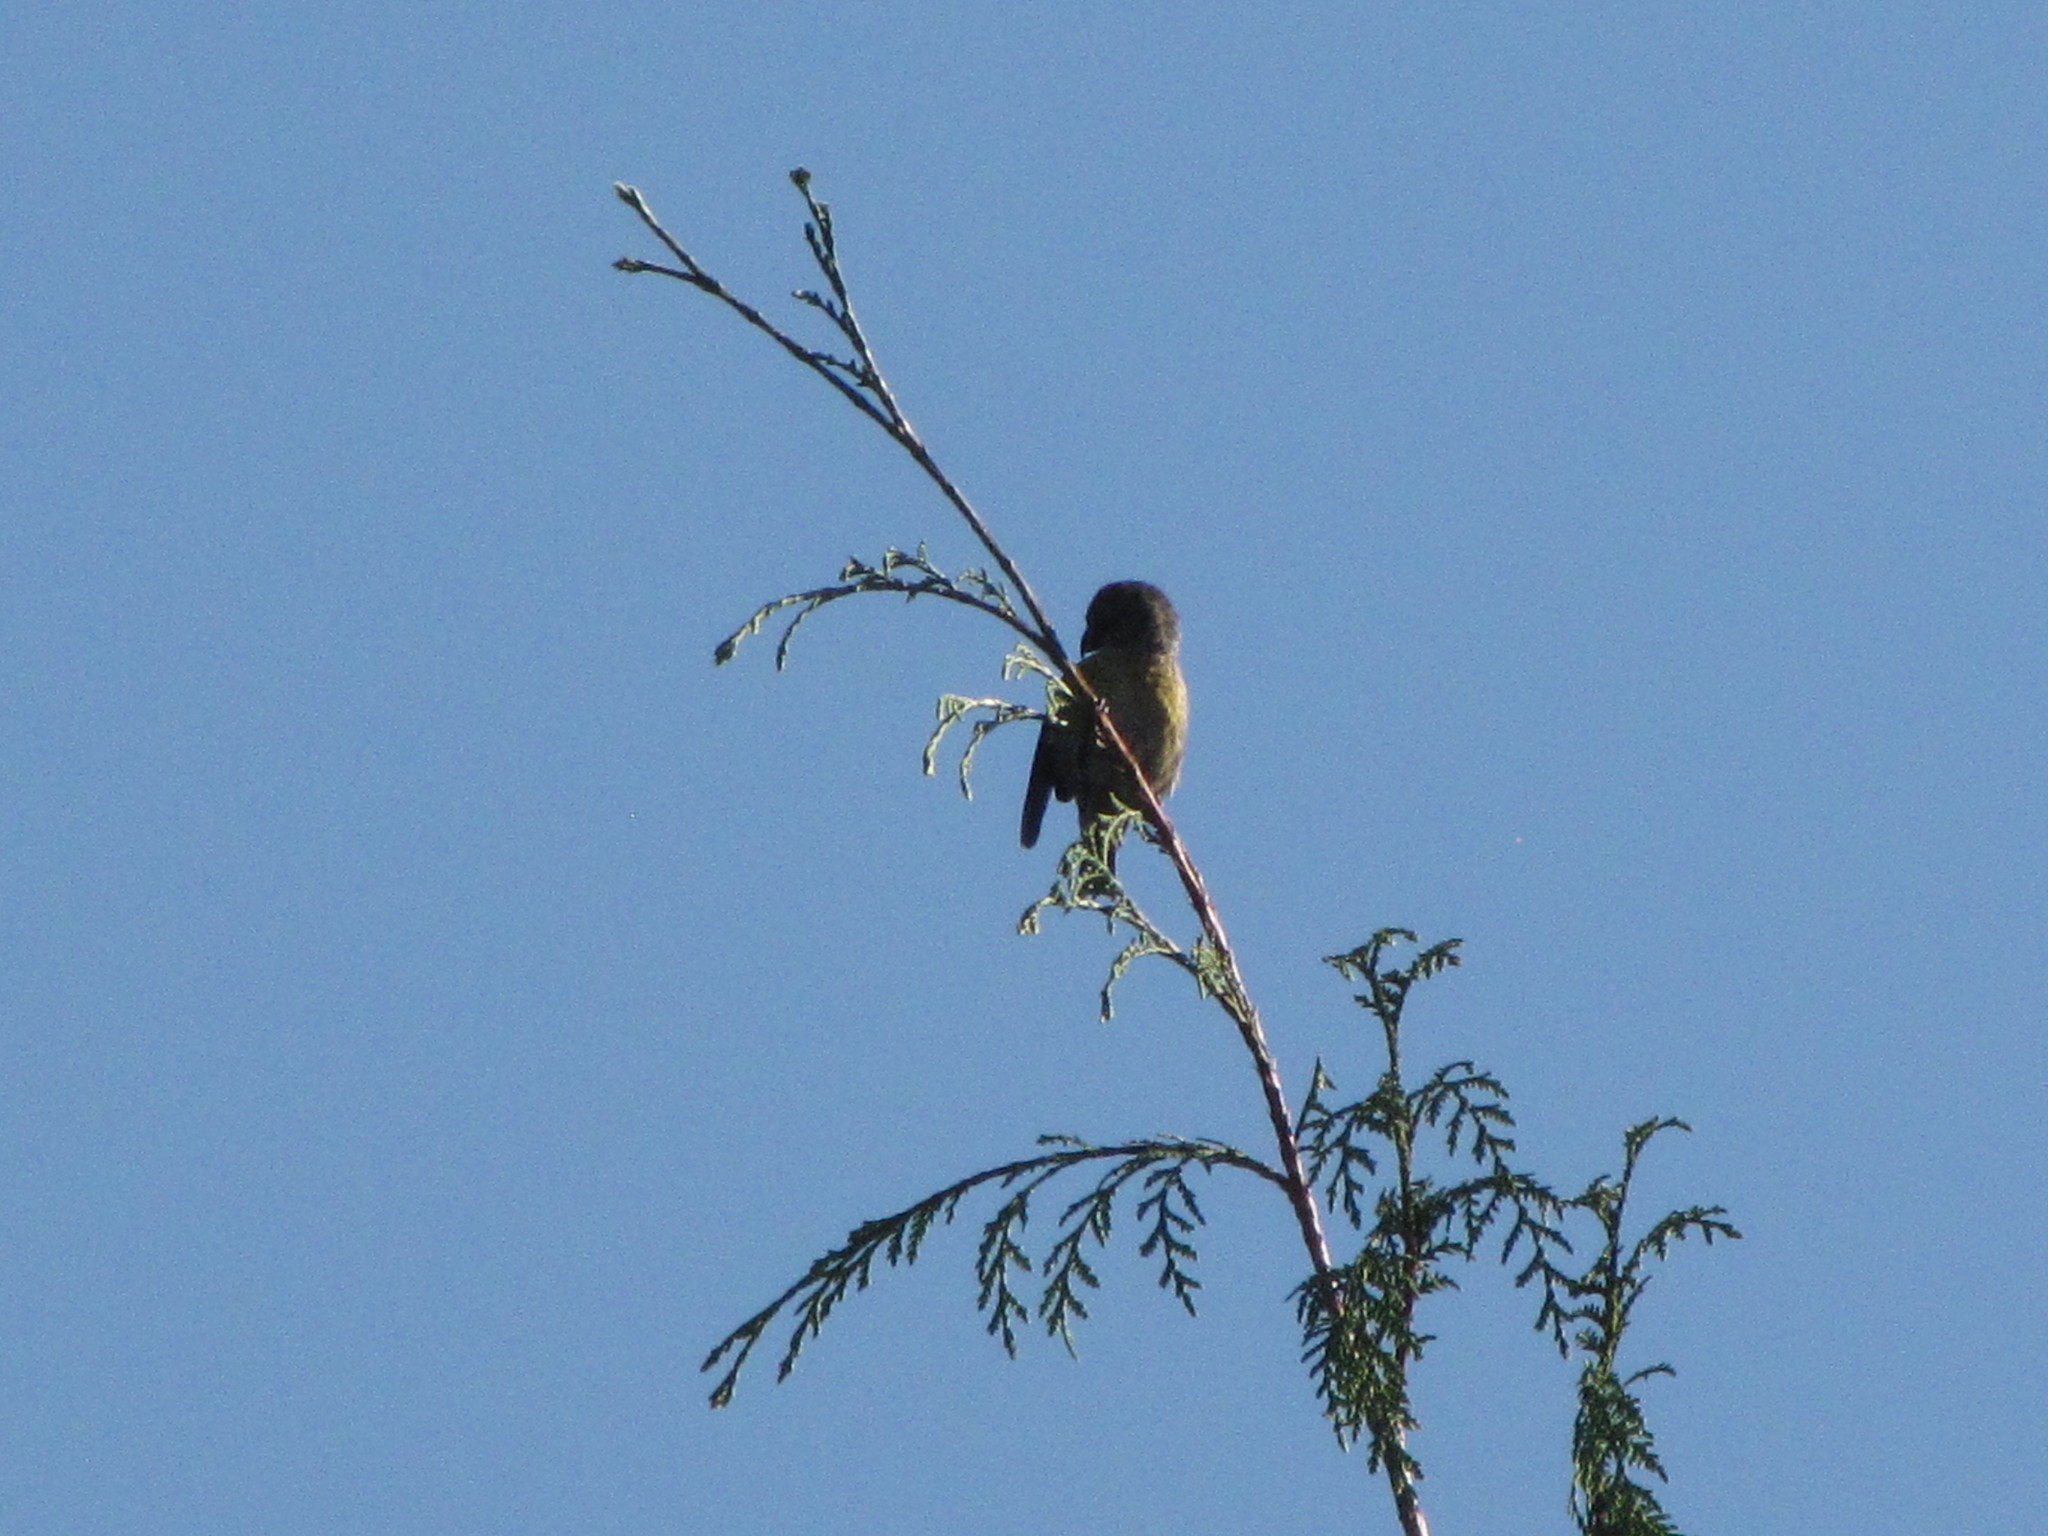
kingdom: Animalia
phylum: Chordata
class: Aves
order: Passeriformes
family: Fringillidae
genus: Loxia
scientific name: Loxia curvirostra
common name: Red crossbill
